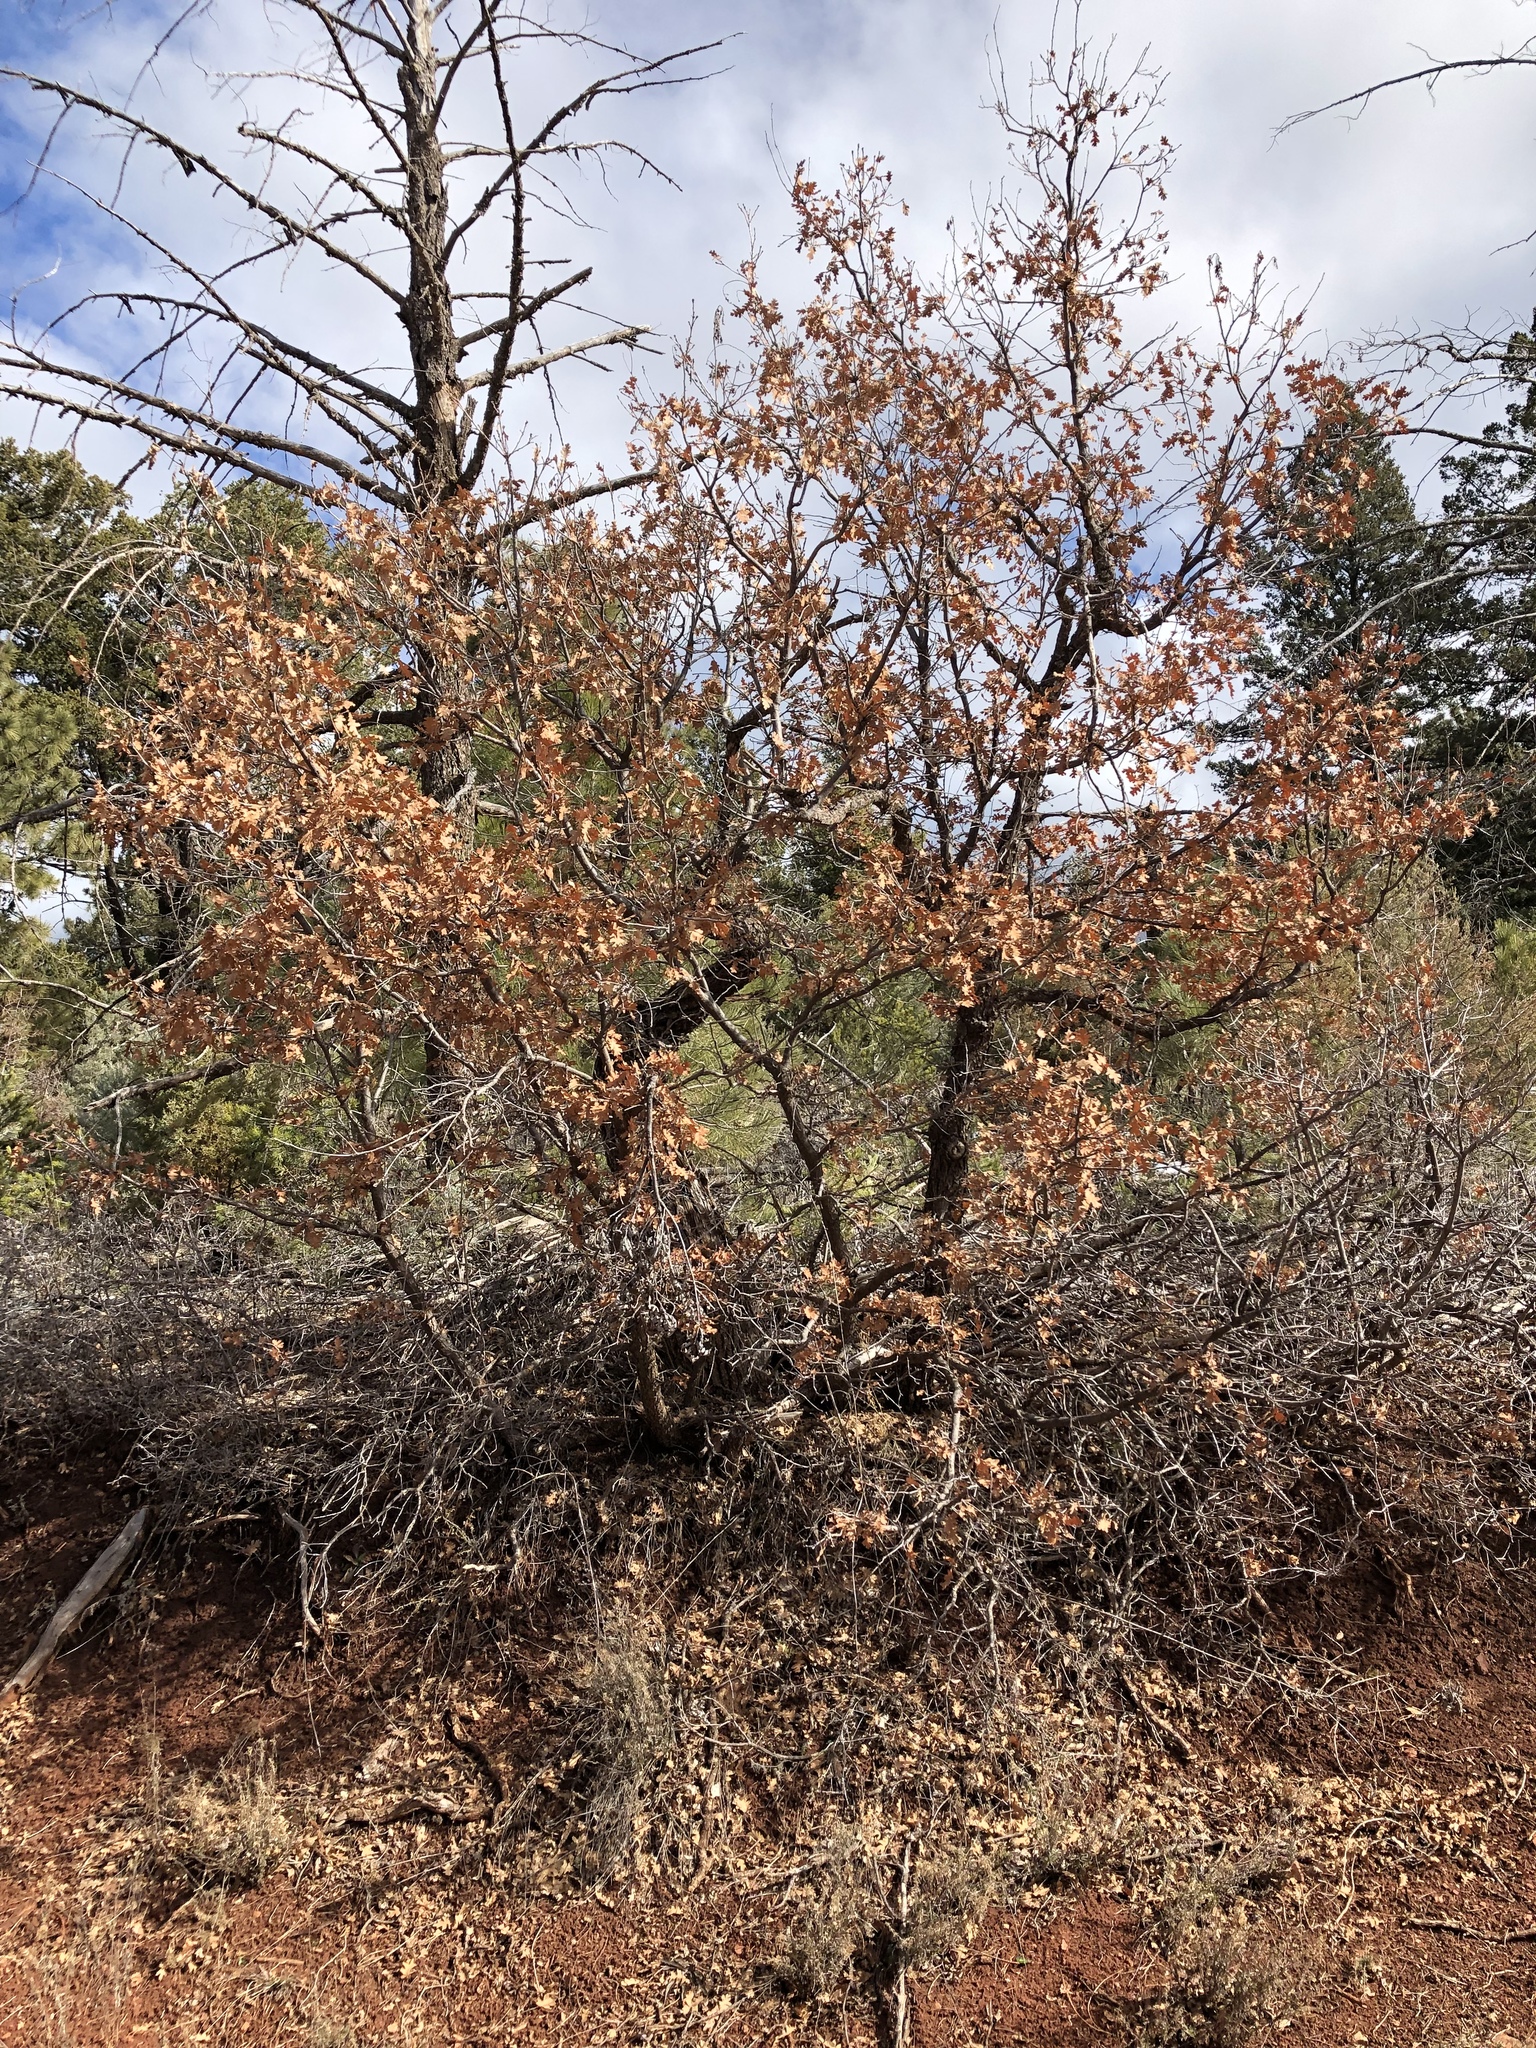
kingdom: Plantae
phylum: Tracheophyta
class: Magnoliopsida
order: Fagales
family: Fagaceae
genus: Quercus
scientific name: Quercus gambelii
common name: Gambel oak
